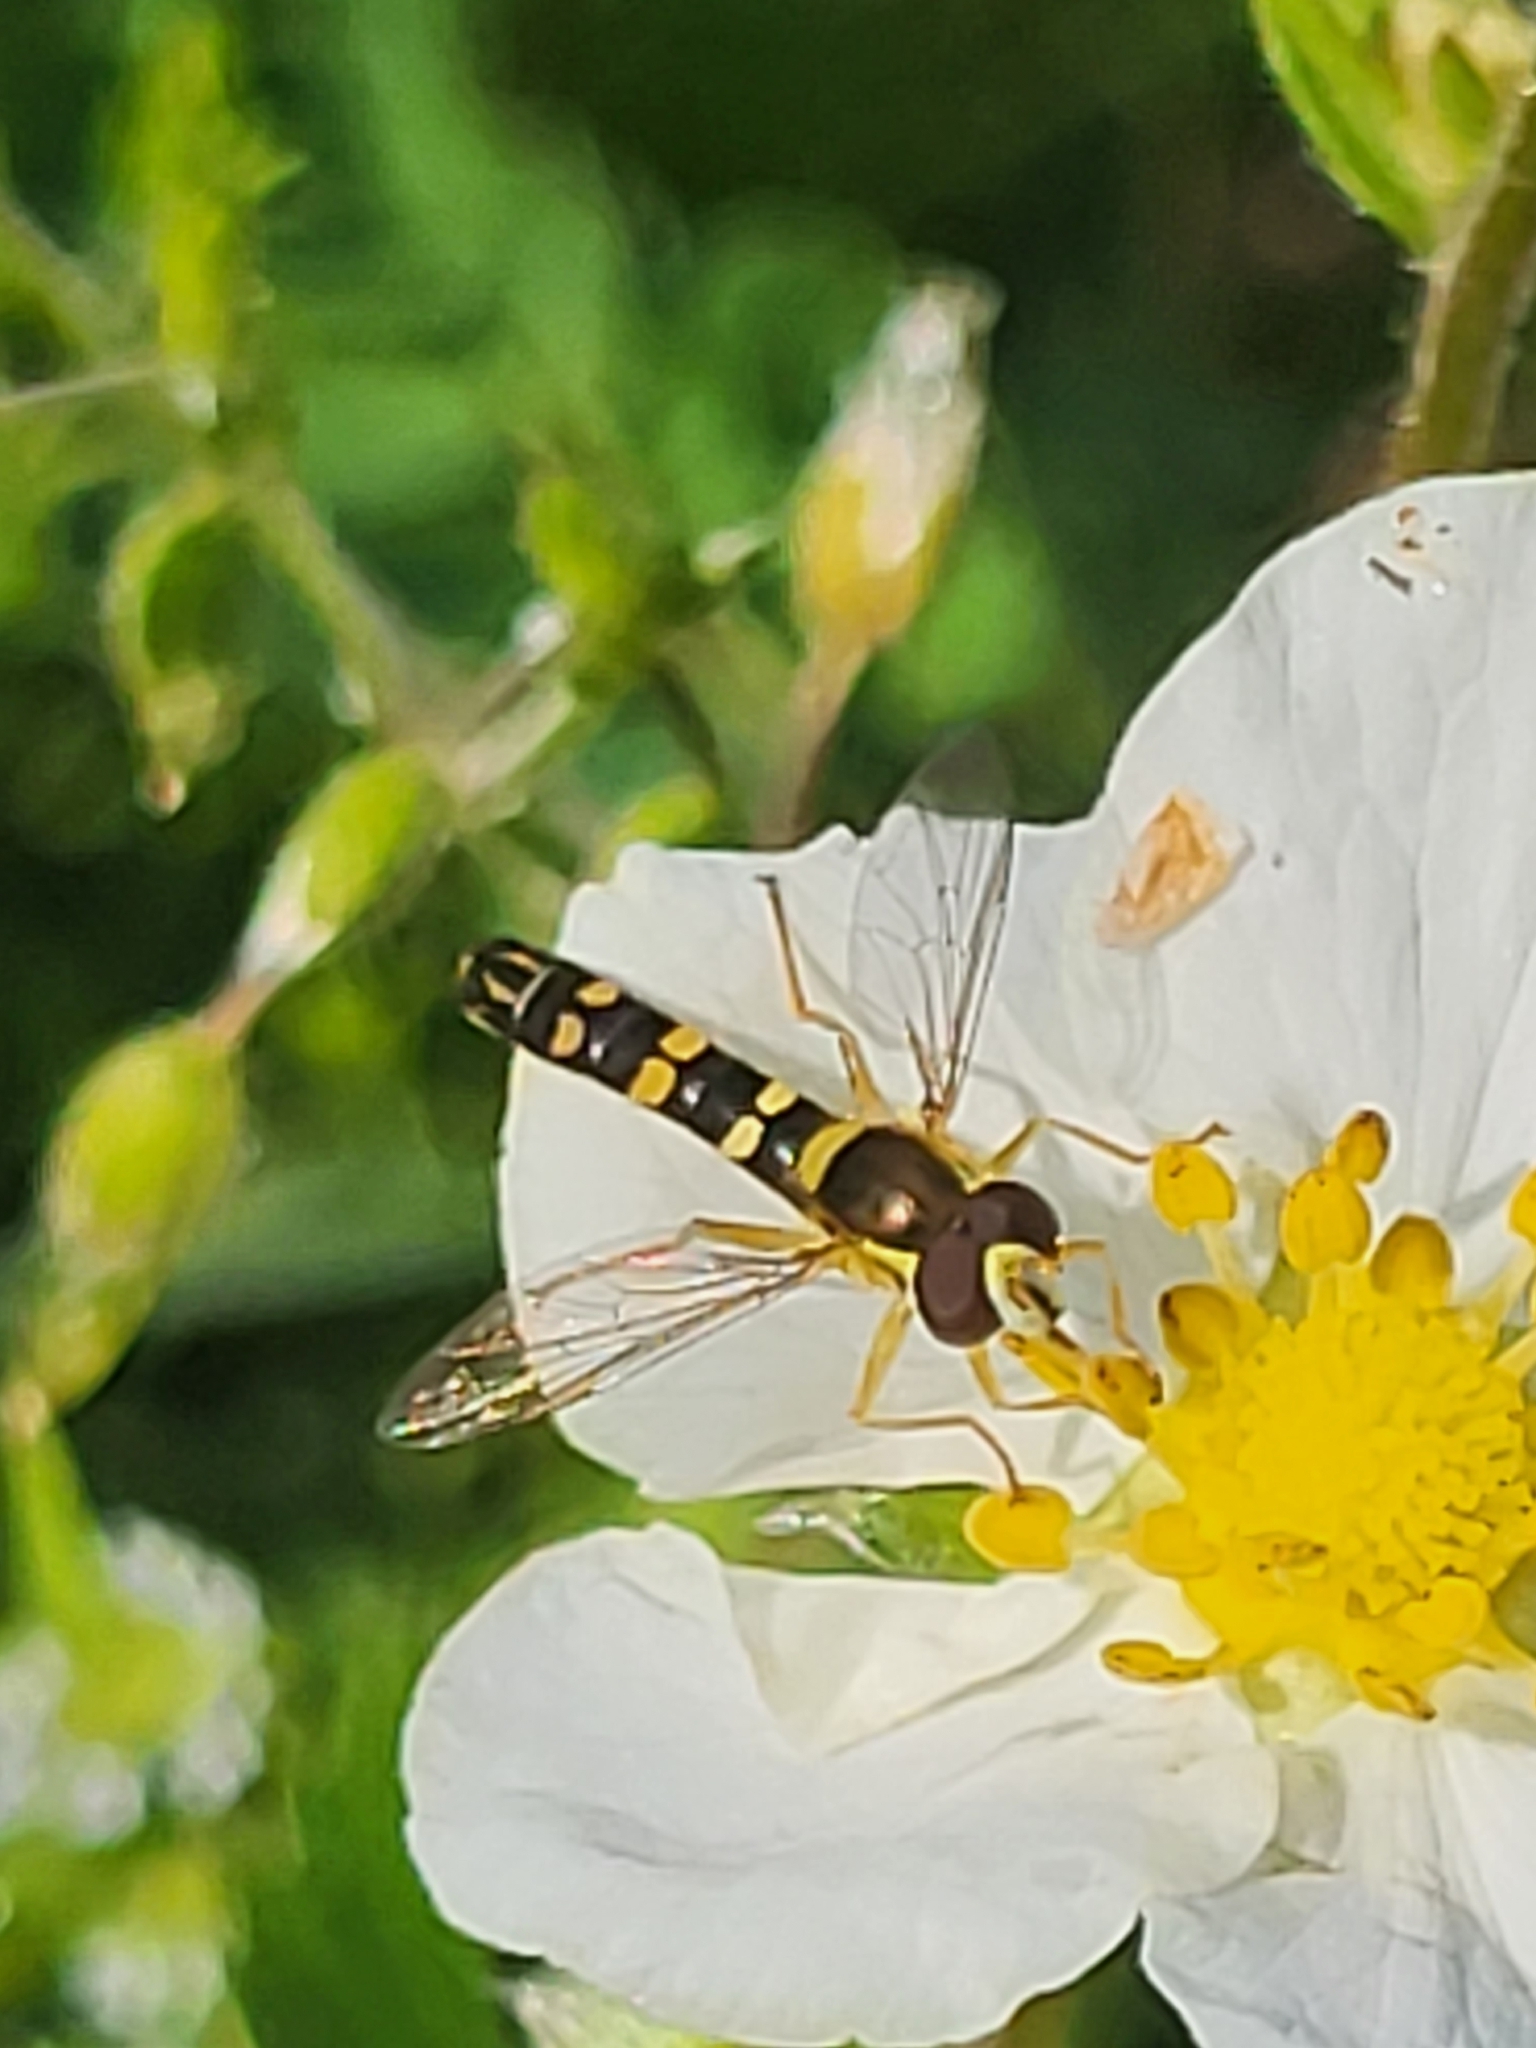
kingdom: Animalia
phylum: Arthropoda
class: Insecta
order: Diptera
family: Syrphidae
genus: Sphaerophoria
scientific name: Sphaerophoria scripta
